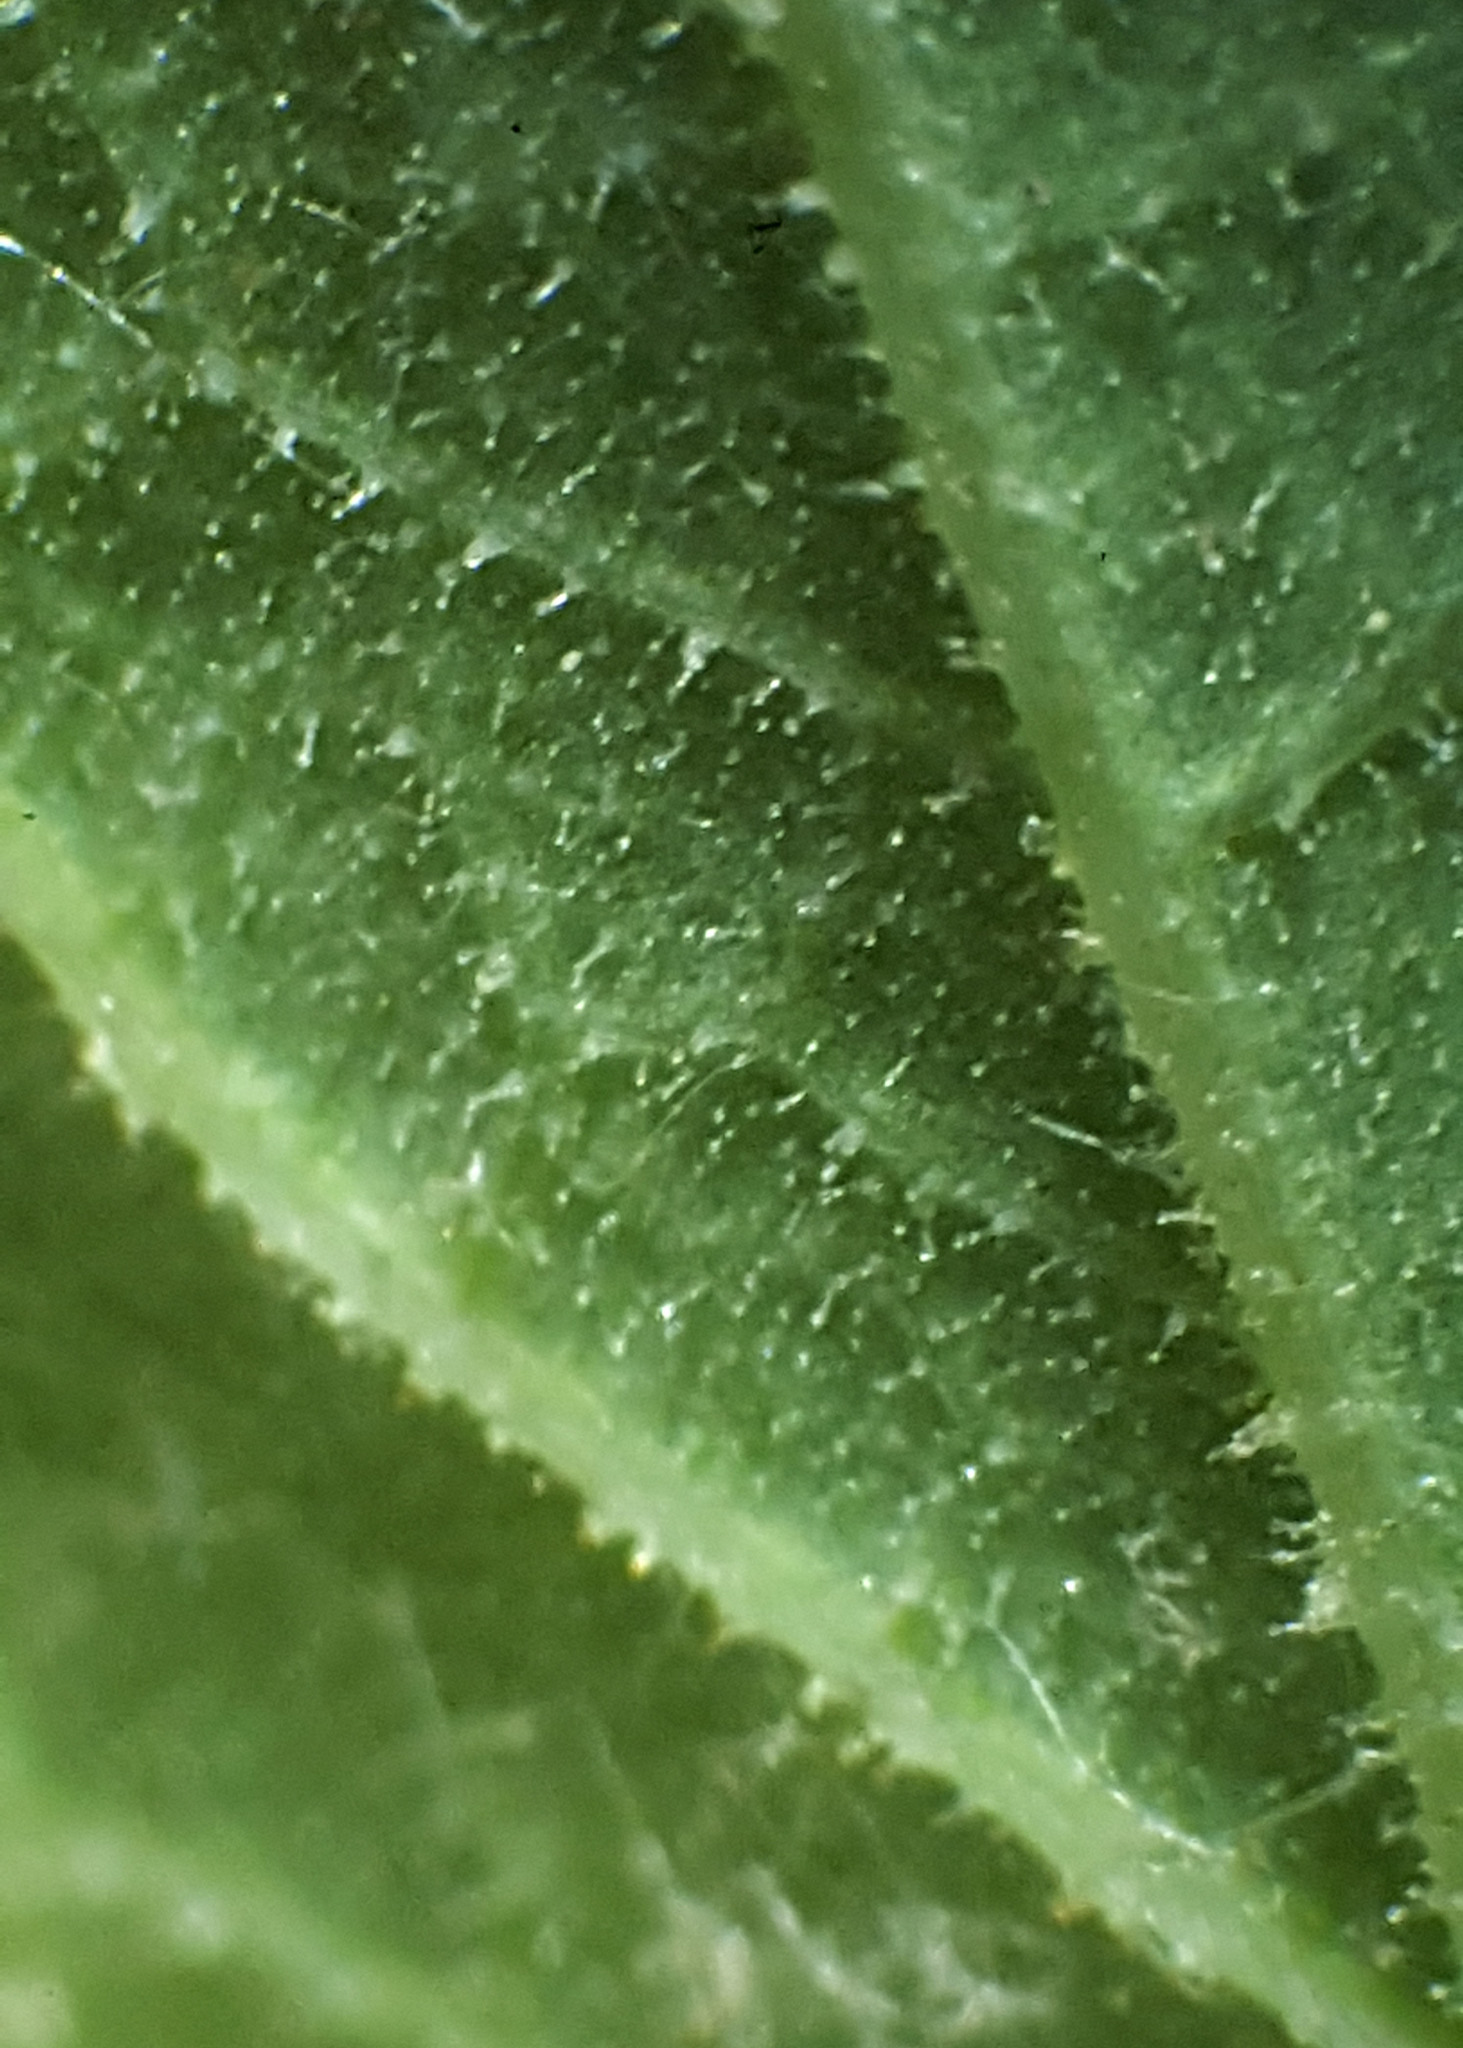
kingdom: Plantae
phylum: Tracheophyta
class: Magnoliopsida
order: Ranunculales
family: Ranunculaceae
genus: Thalictrum
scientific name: Thalictrum revolutum
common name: Waxy meadow-rue
